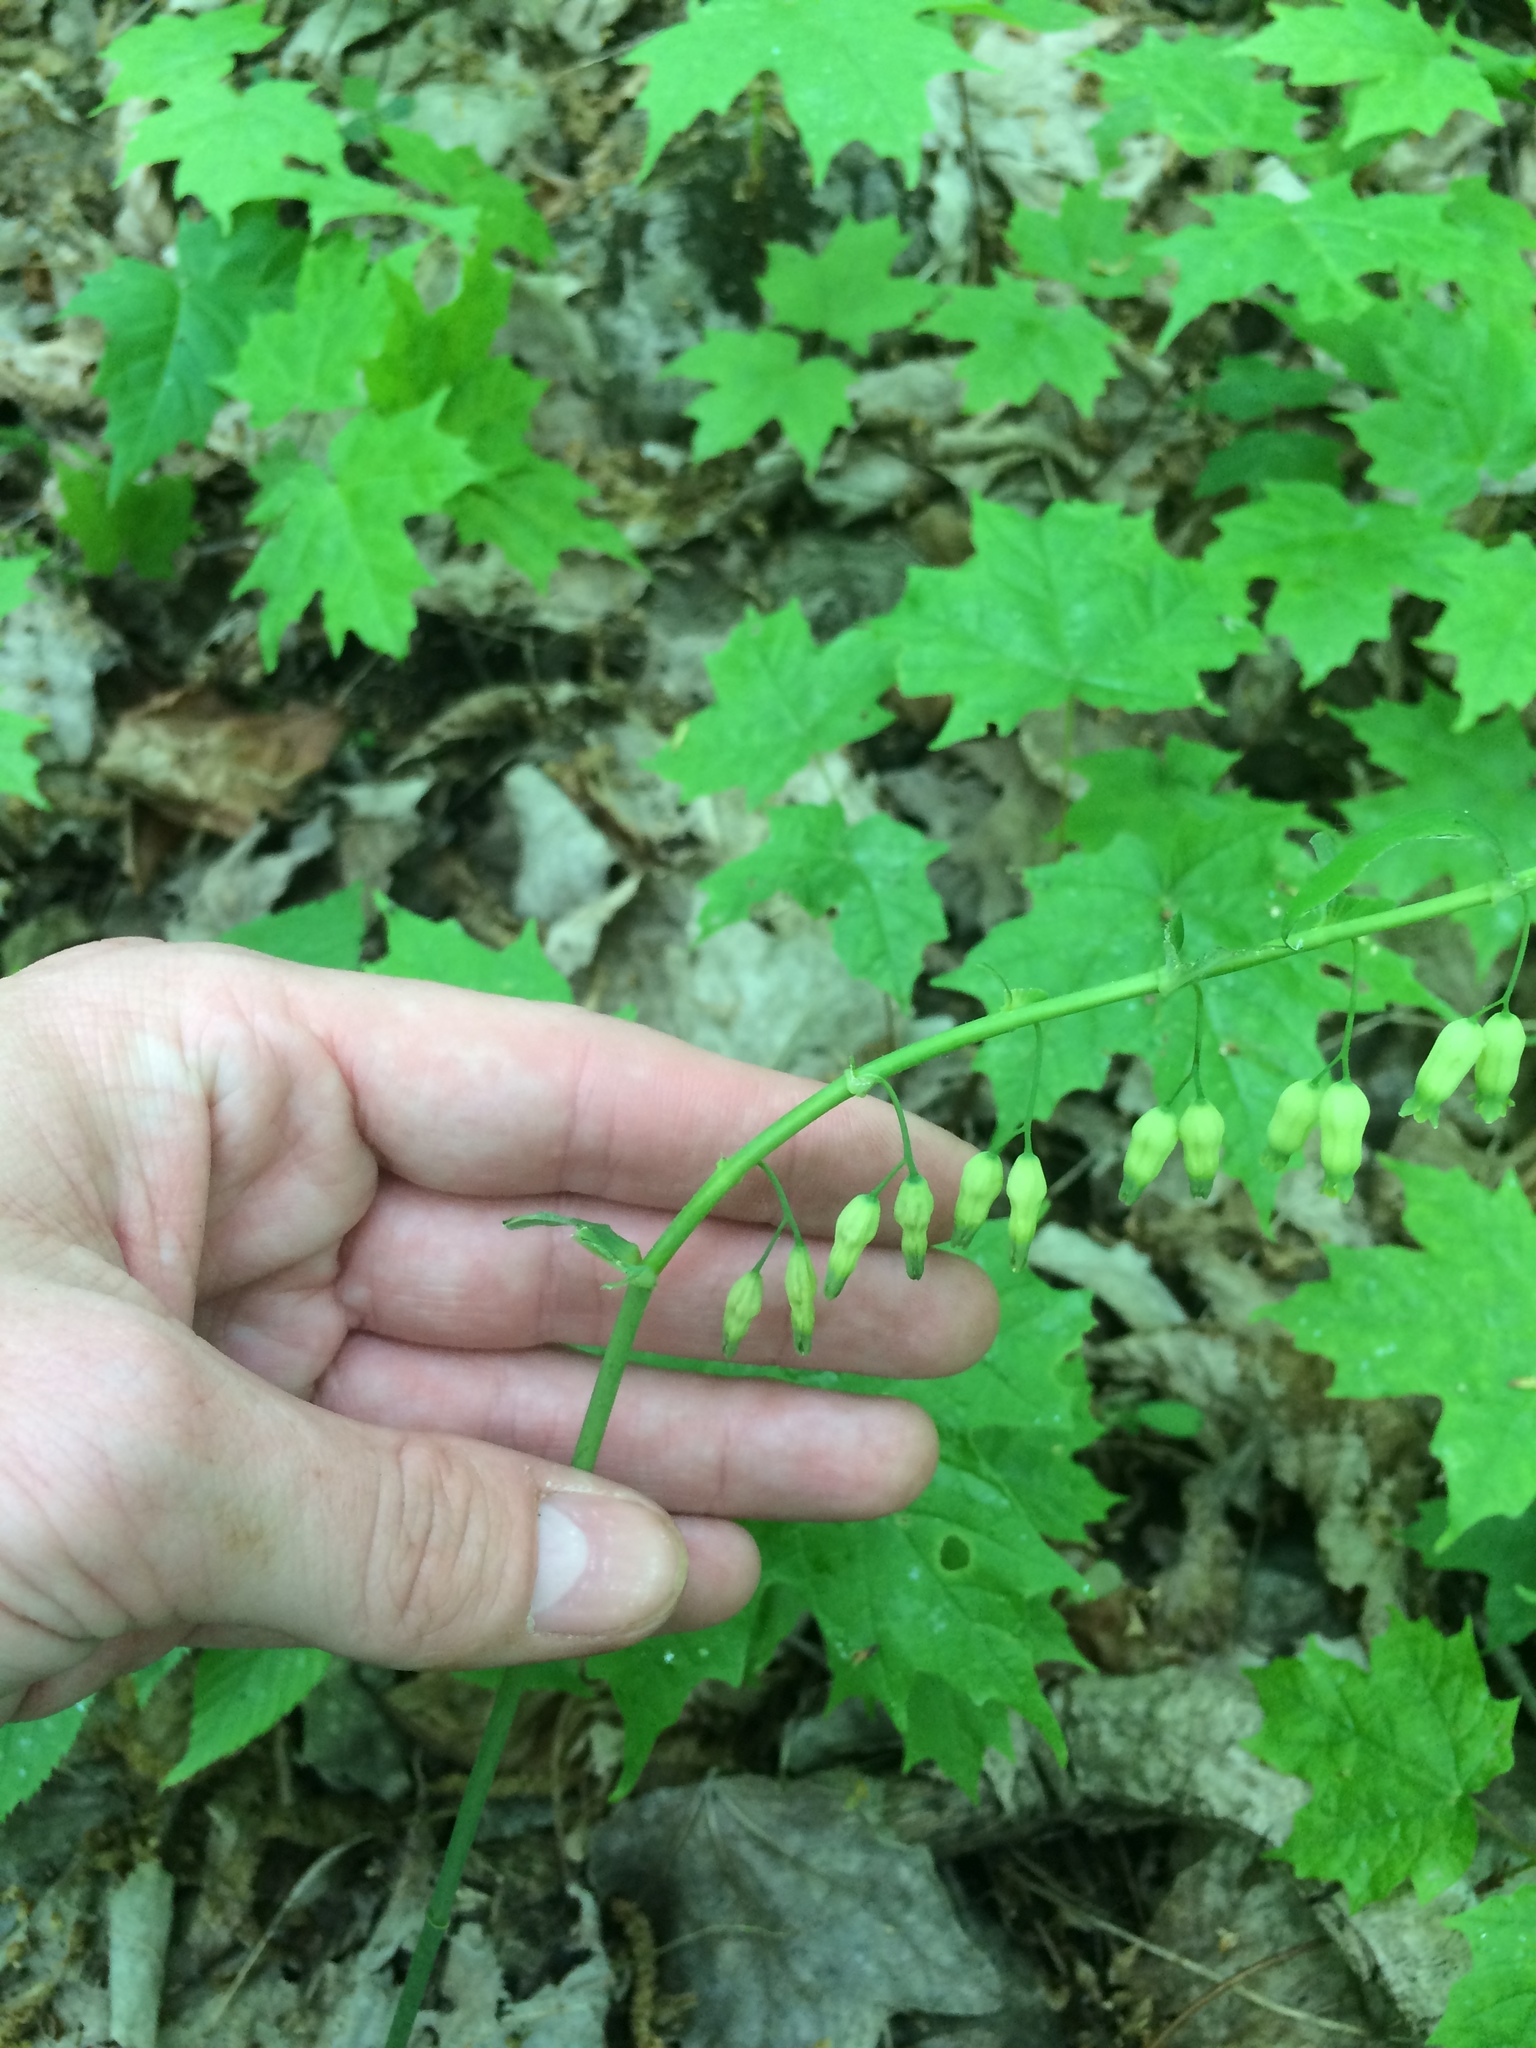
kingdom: Plantae
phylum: Tracheophyta
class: Liliopsida
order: Asparagales
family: Asparagaceae
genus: Polygonatum
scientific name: Polygonatum pubescens
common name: Downy solomon's seal
